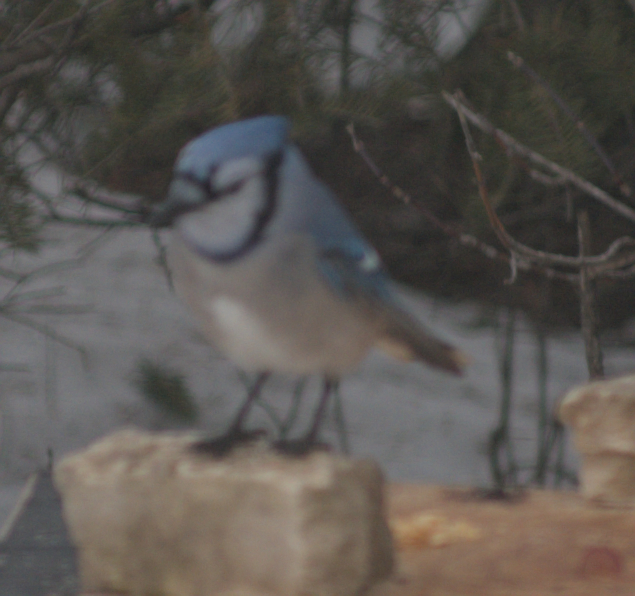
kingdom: Animalia
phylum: Chordata
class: Aves
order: Passeriformes
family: Corvidae
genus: Cyanocitta
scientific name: Cyanocitta cristata
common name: Blue jay
